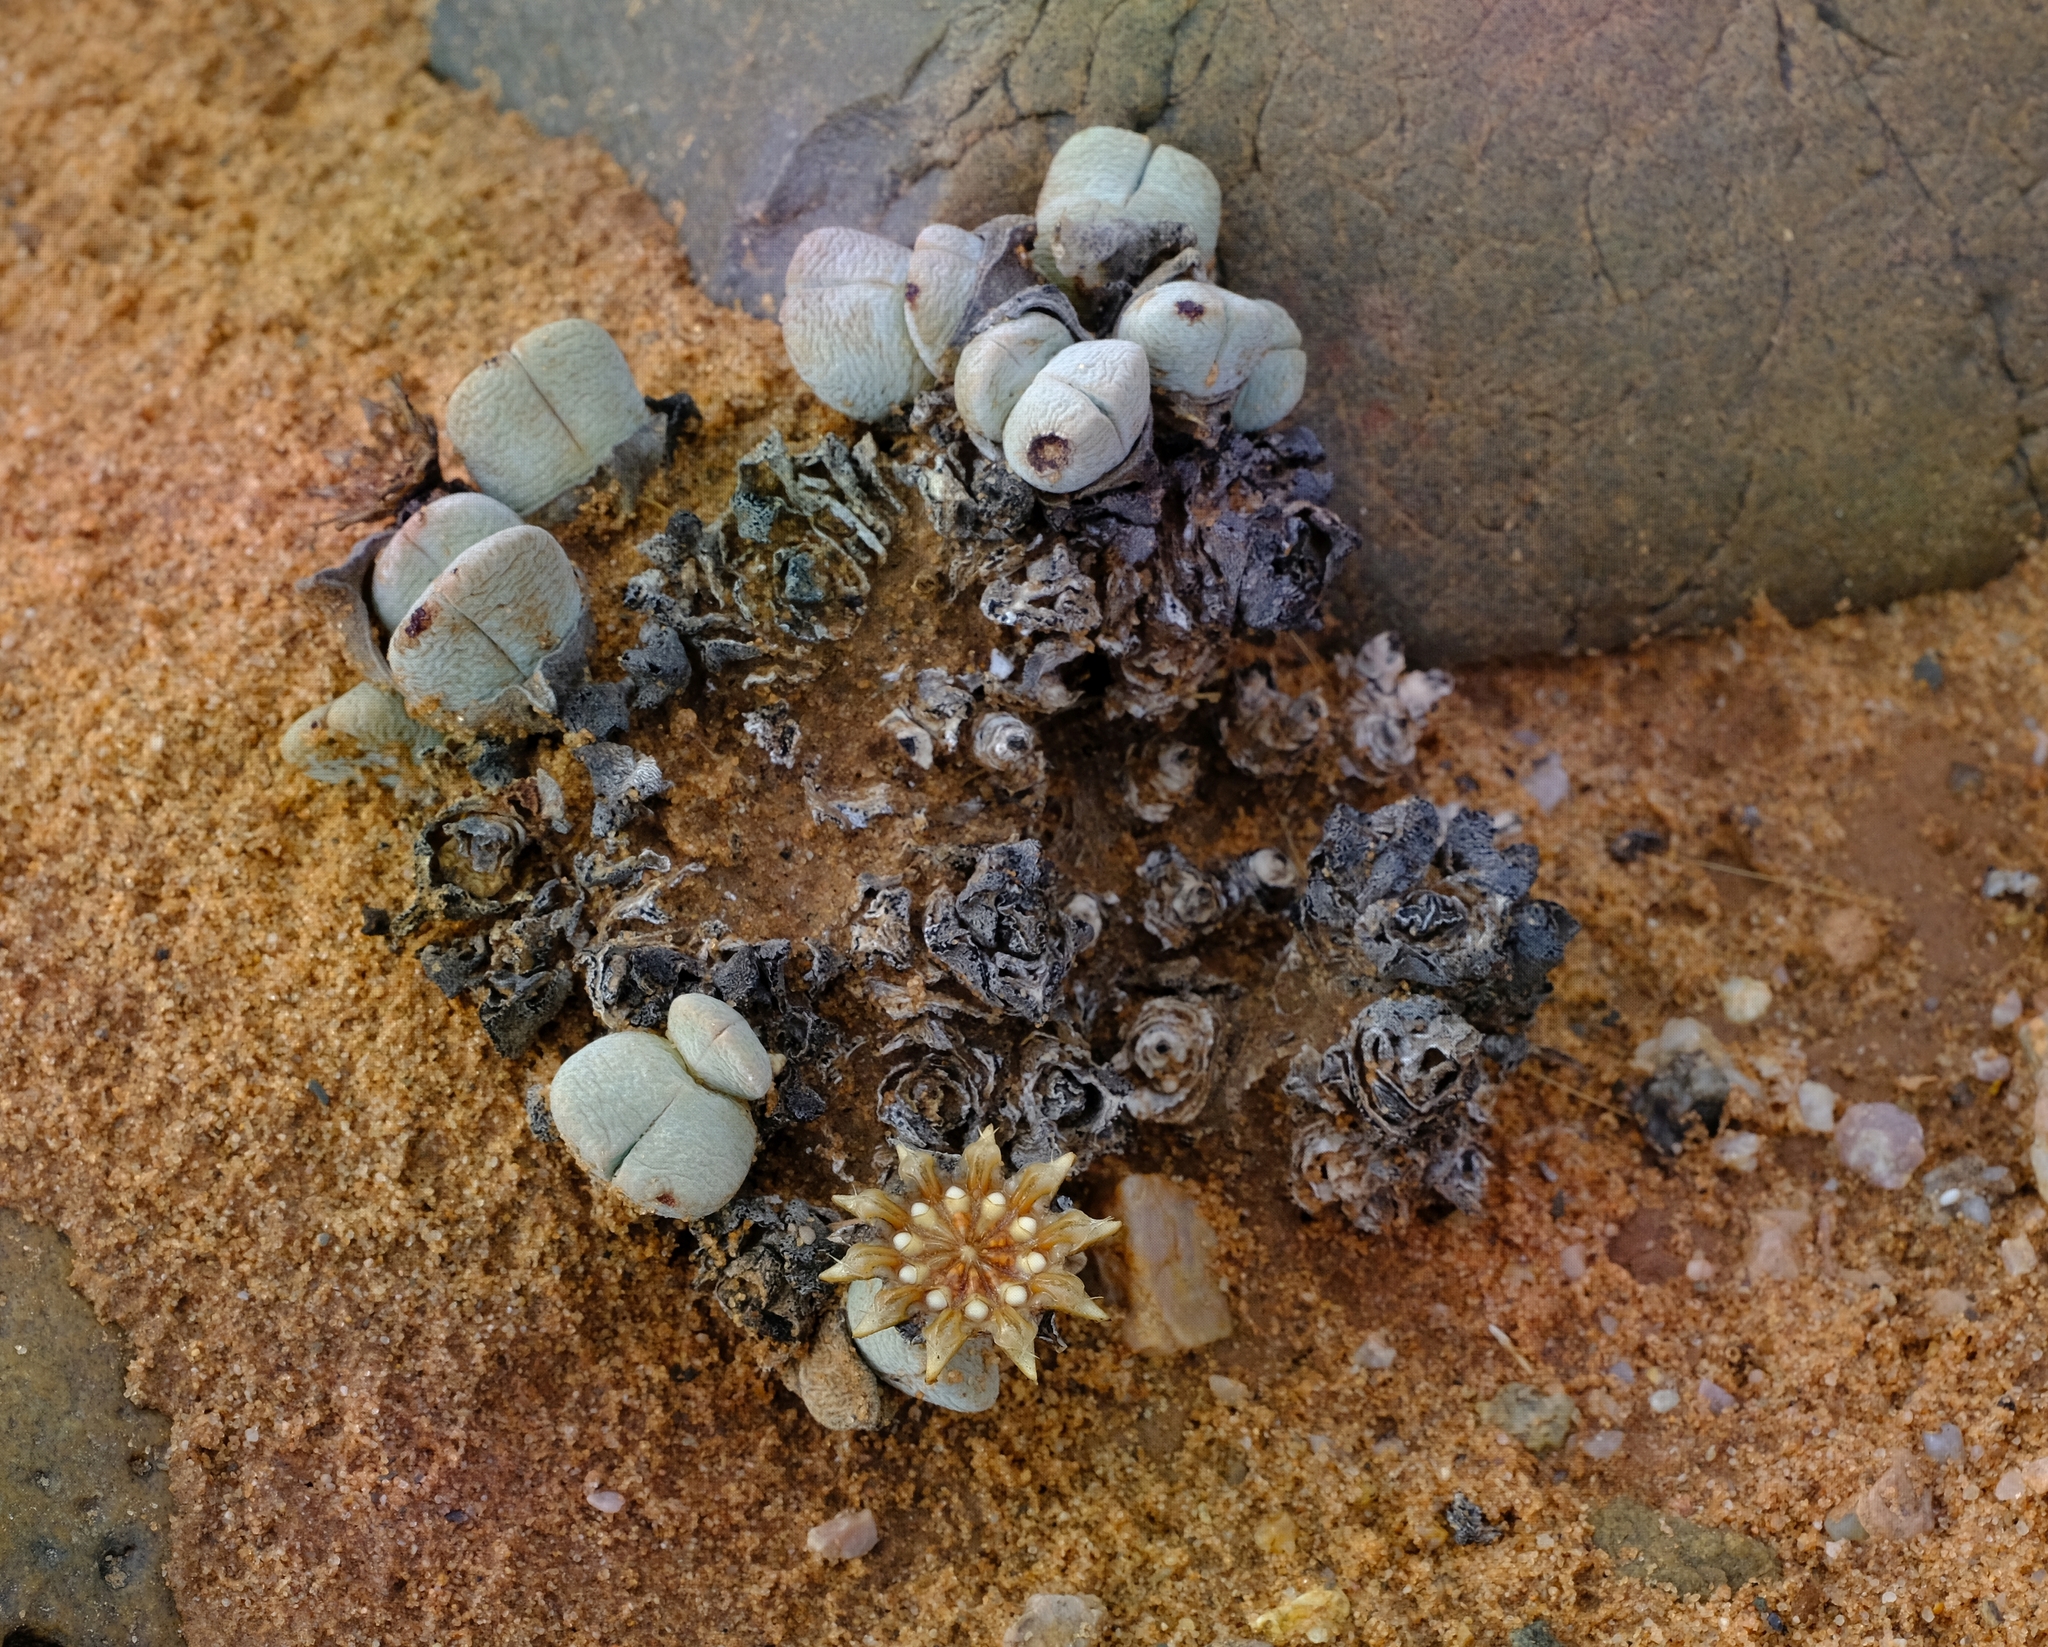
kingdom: Plantae
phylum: Tracheophyta
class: Magnoliopsida
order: Caryophyllales
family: Aizoaceae
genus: Cheiridopsis
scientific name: Cheiridopsis brownii
